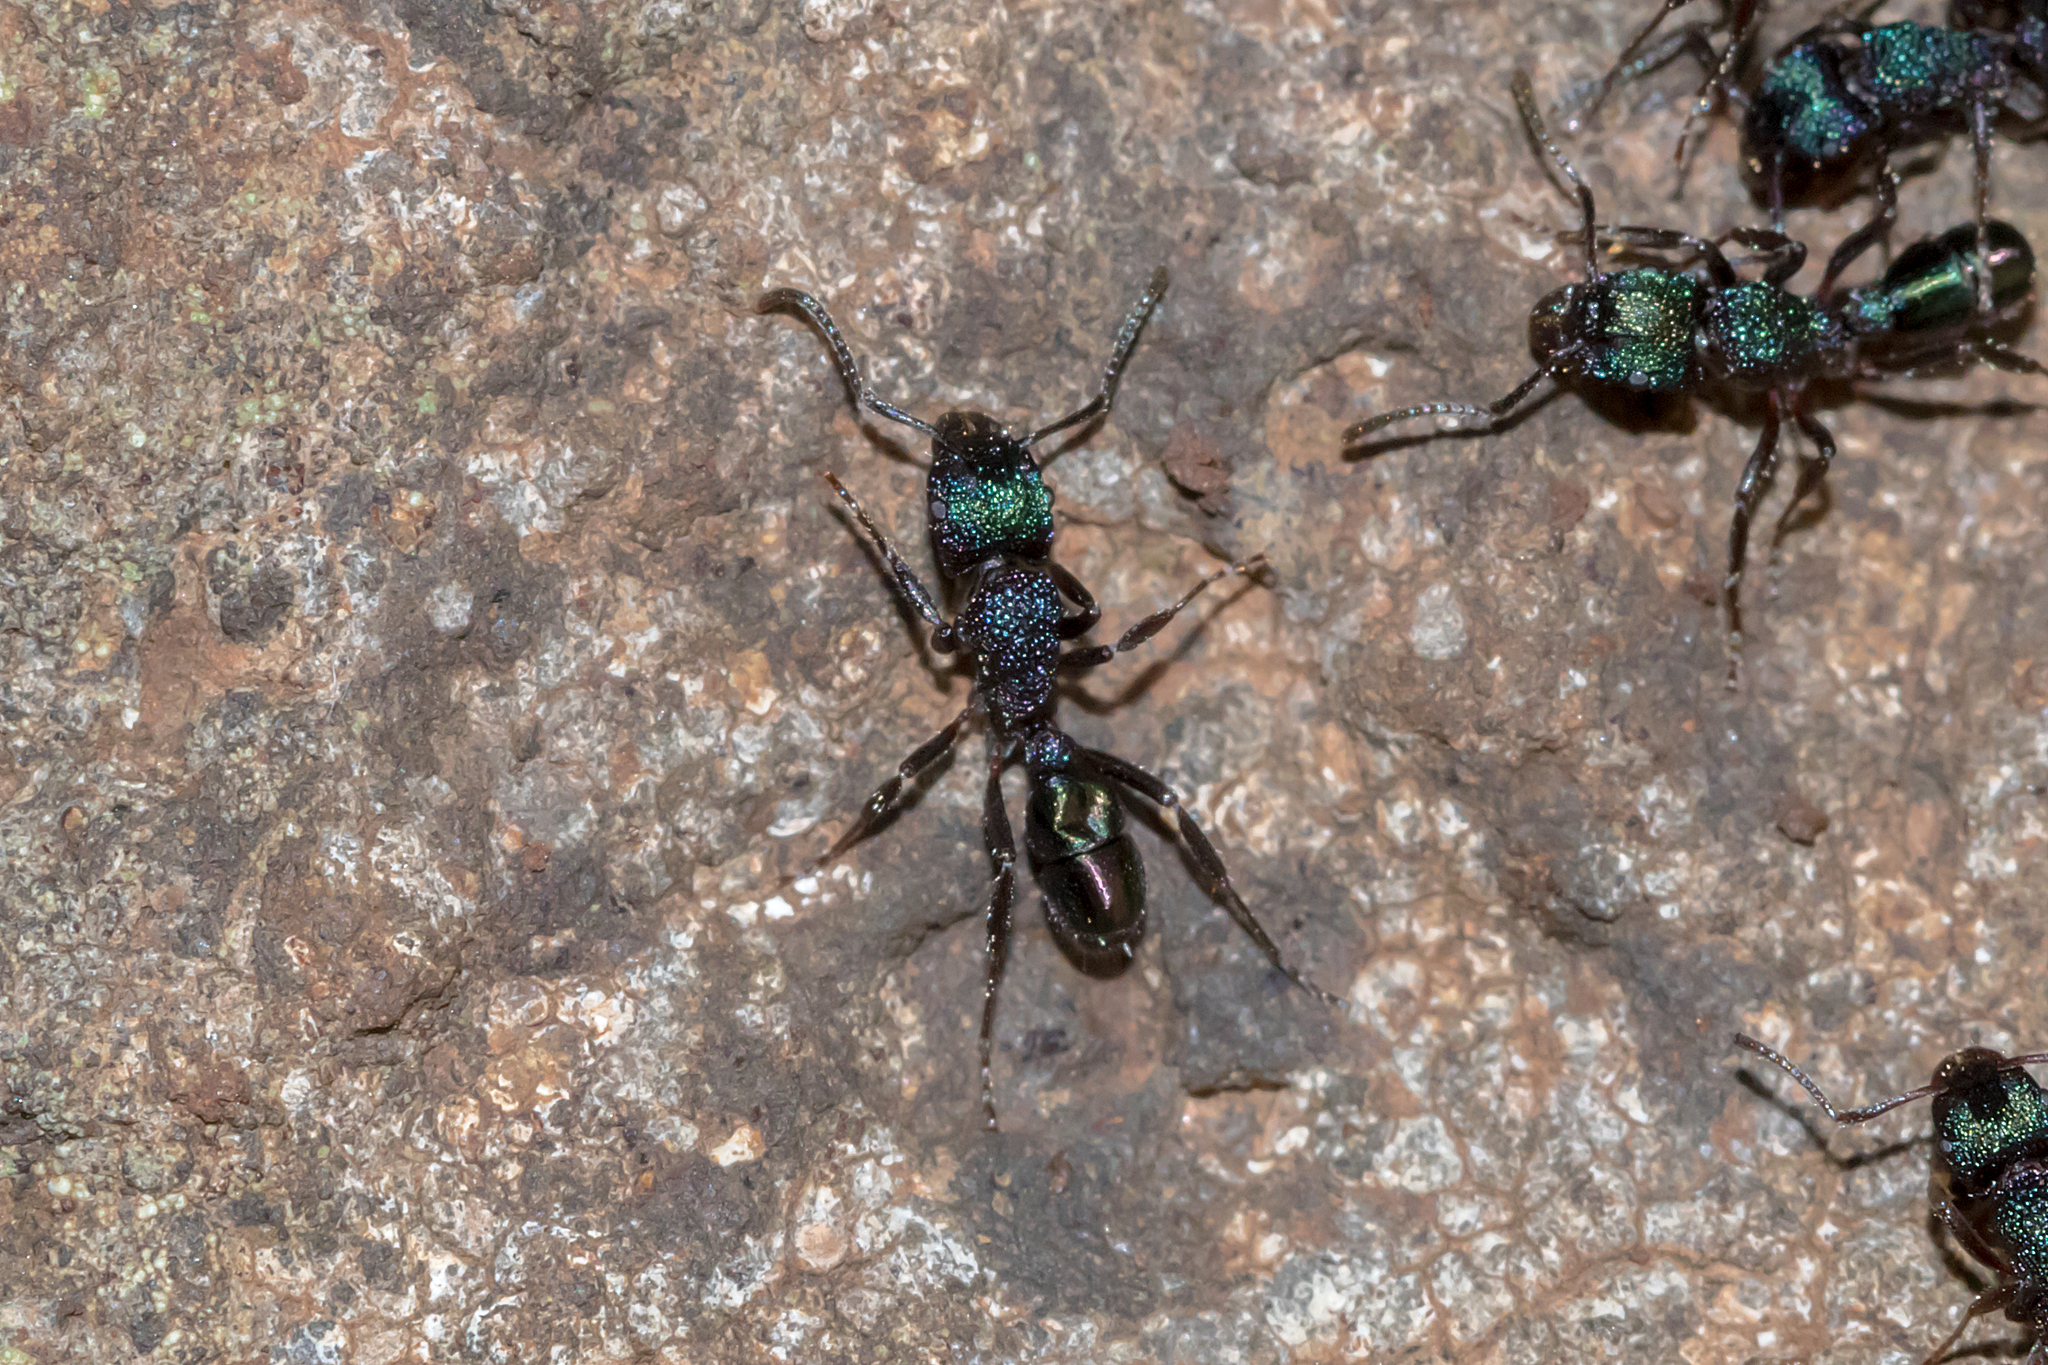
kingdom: Animalia
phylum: Arthropoda
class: Insecta
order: Hymenoptera
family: Formicidae
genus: Rhytidoponera
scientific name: Rhytidoponera metallica
